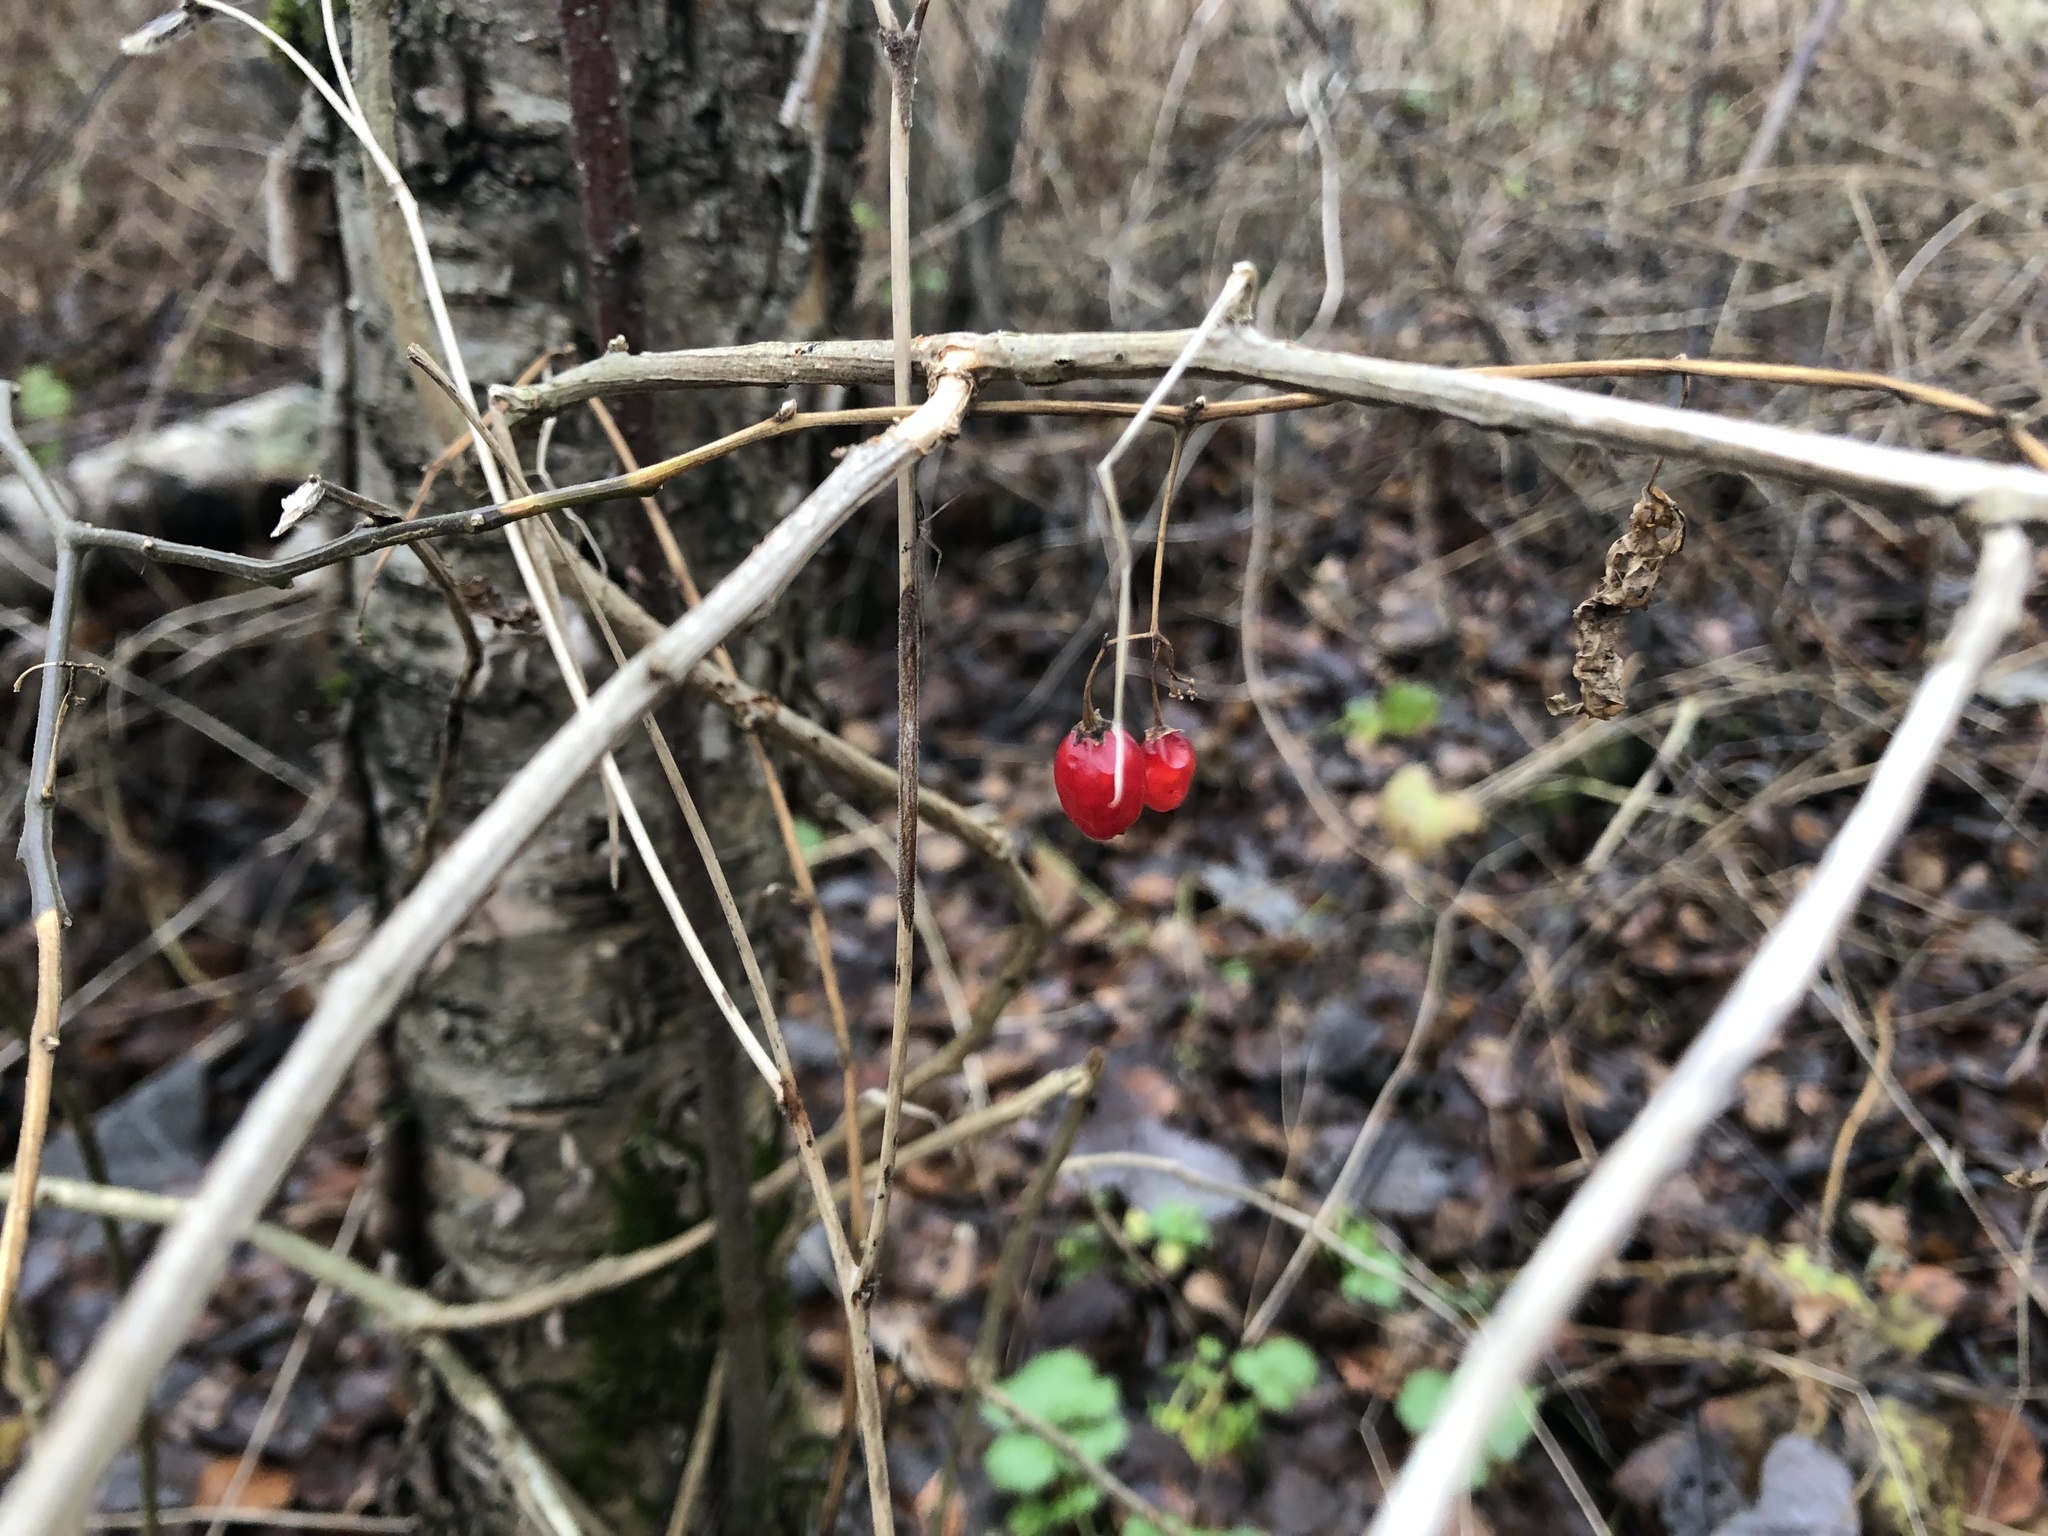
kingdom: Plantae
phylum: Tracheophyta
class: Magnoliopsida
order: Solanales
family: Solanaceae
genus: Solanum
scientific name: Solanum dulcamara
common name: Climbing nightshade
